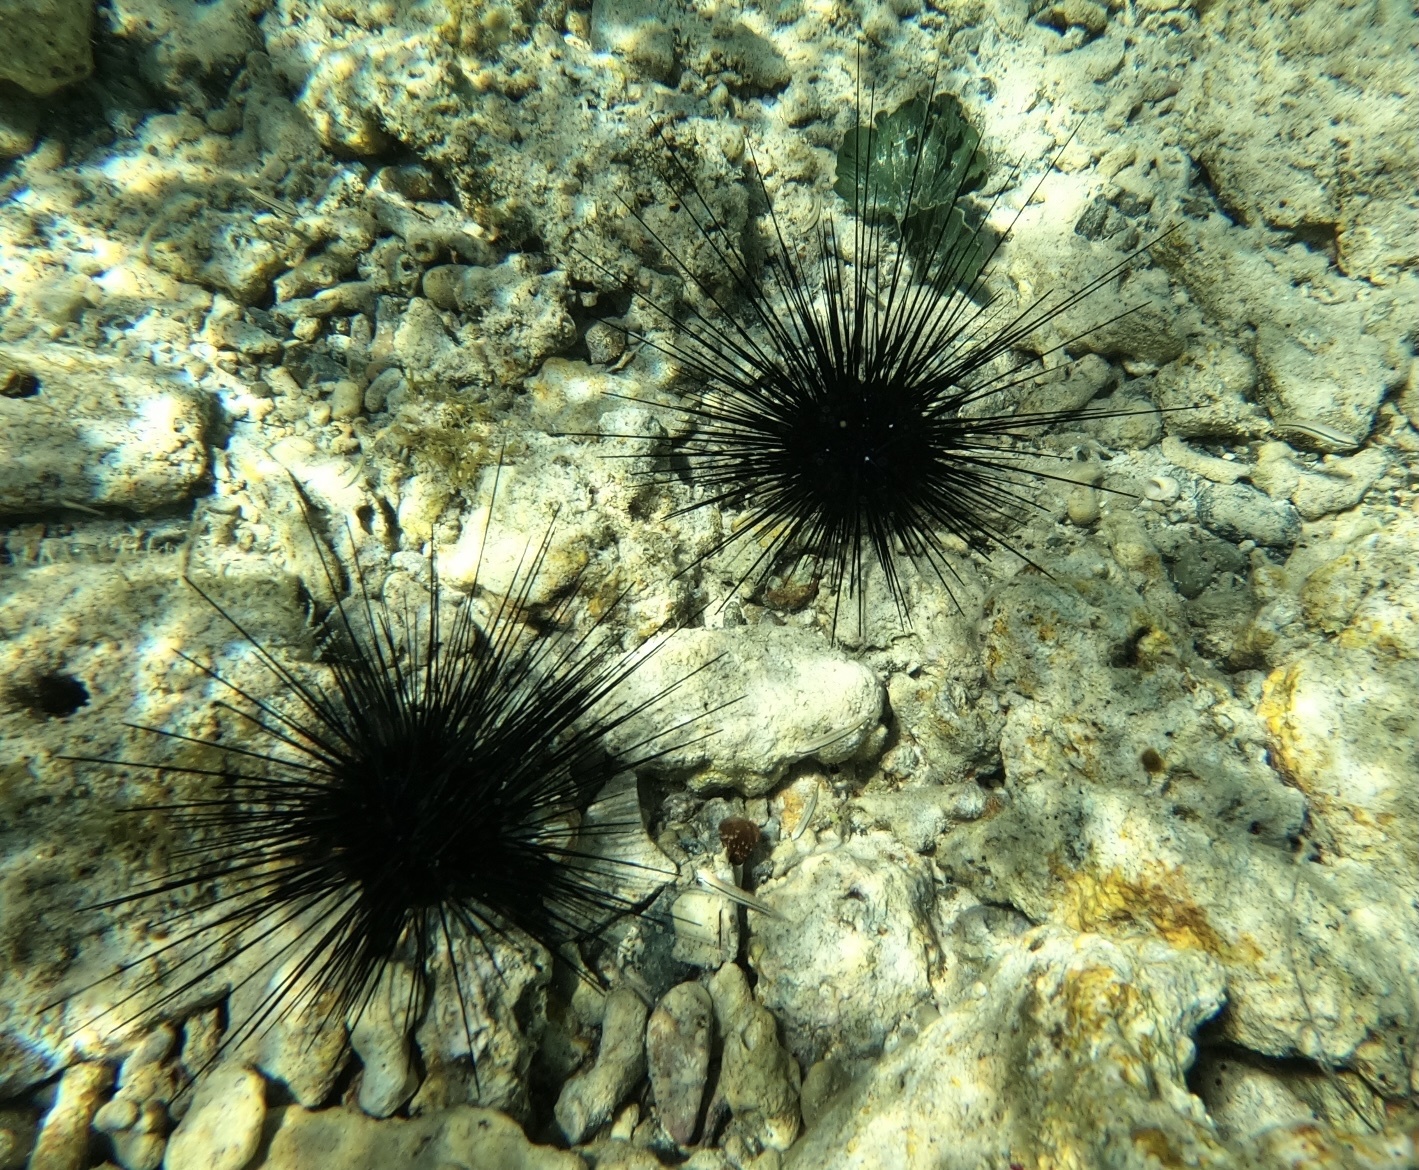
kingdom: Animalia
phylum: Echinodermata
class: Echinoidea
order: Diadematoida
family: Diadematidae
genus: Diadema
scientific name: Diadema antillarum
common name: Spiny urchin
